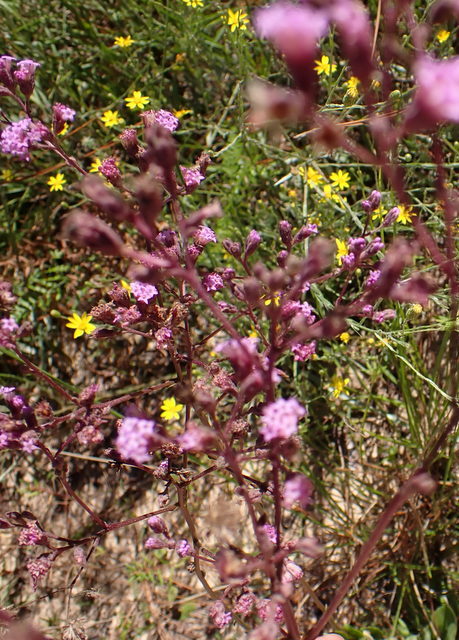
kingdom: Plantae
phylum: Tracheophyta
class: Magnoliopsida
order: Asterales
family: Asteraceae
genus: Carphephorus
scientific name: Carphephorus odoratissimus
